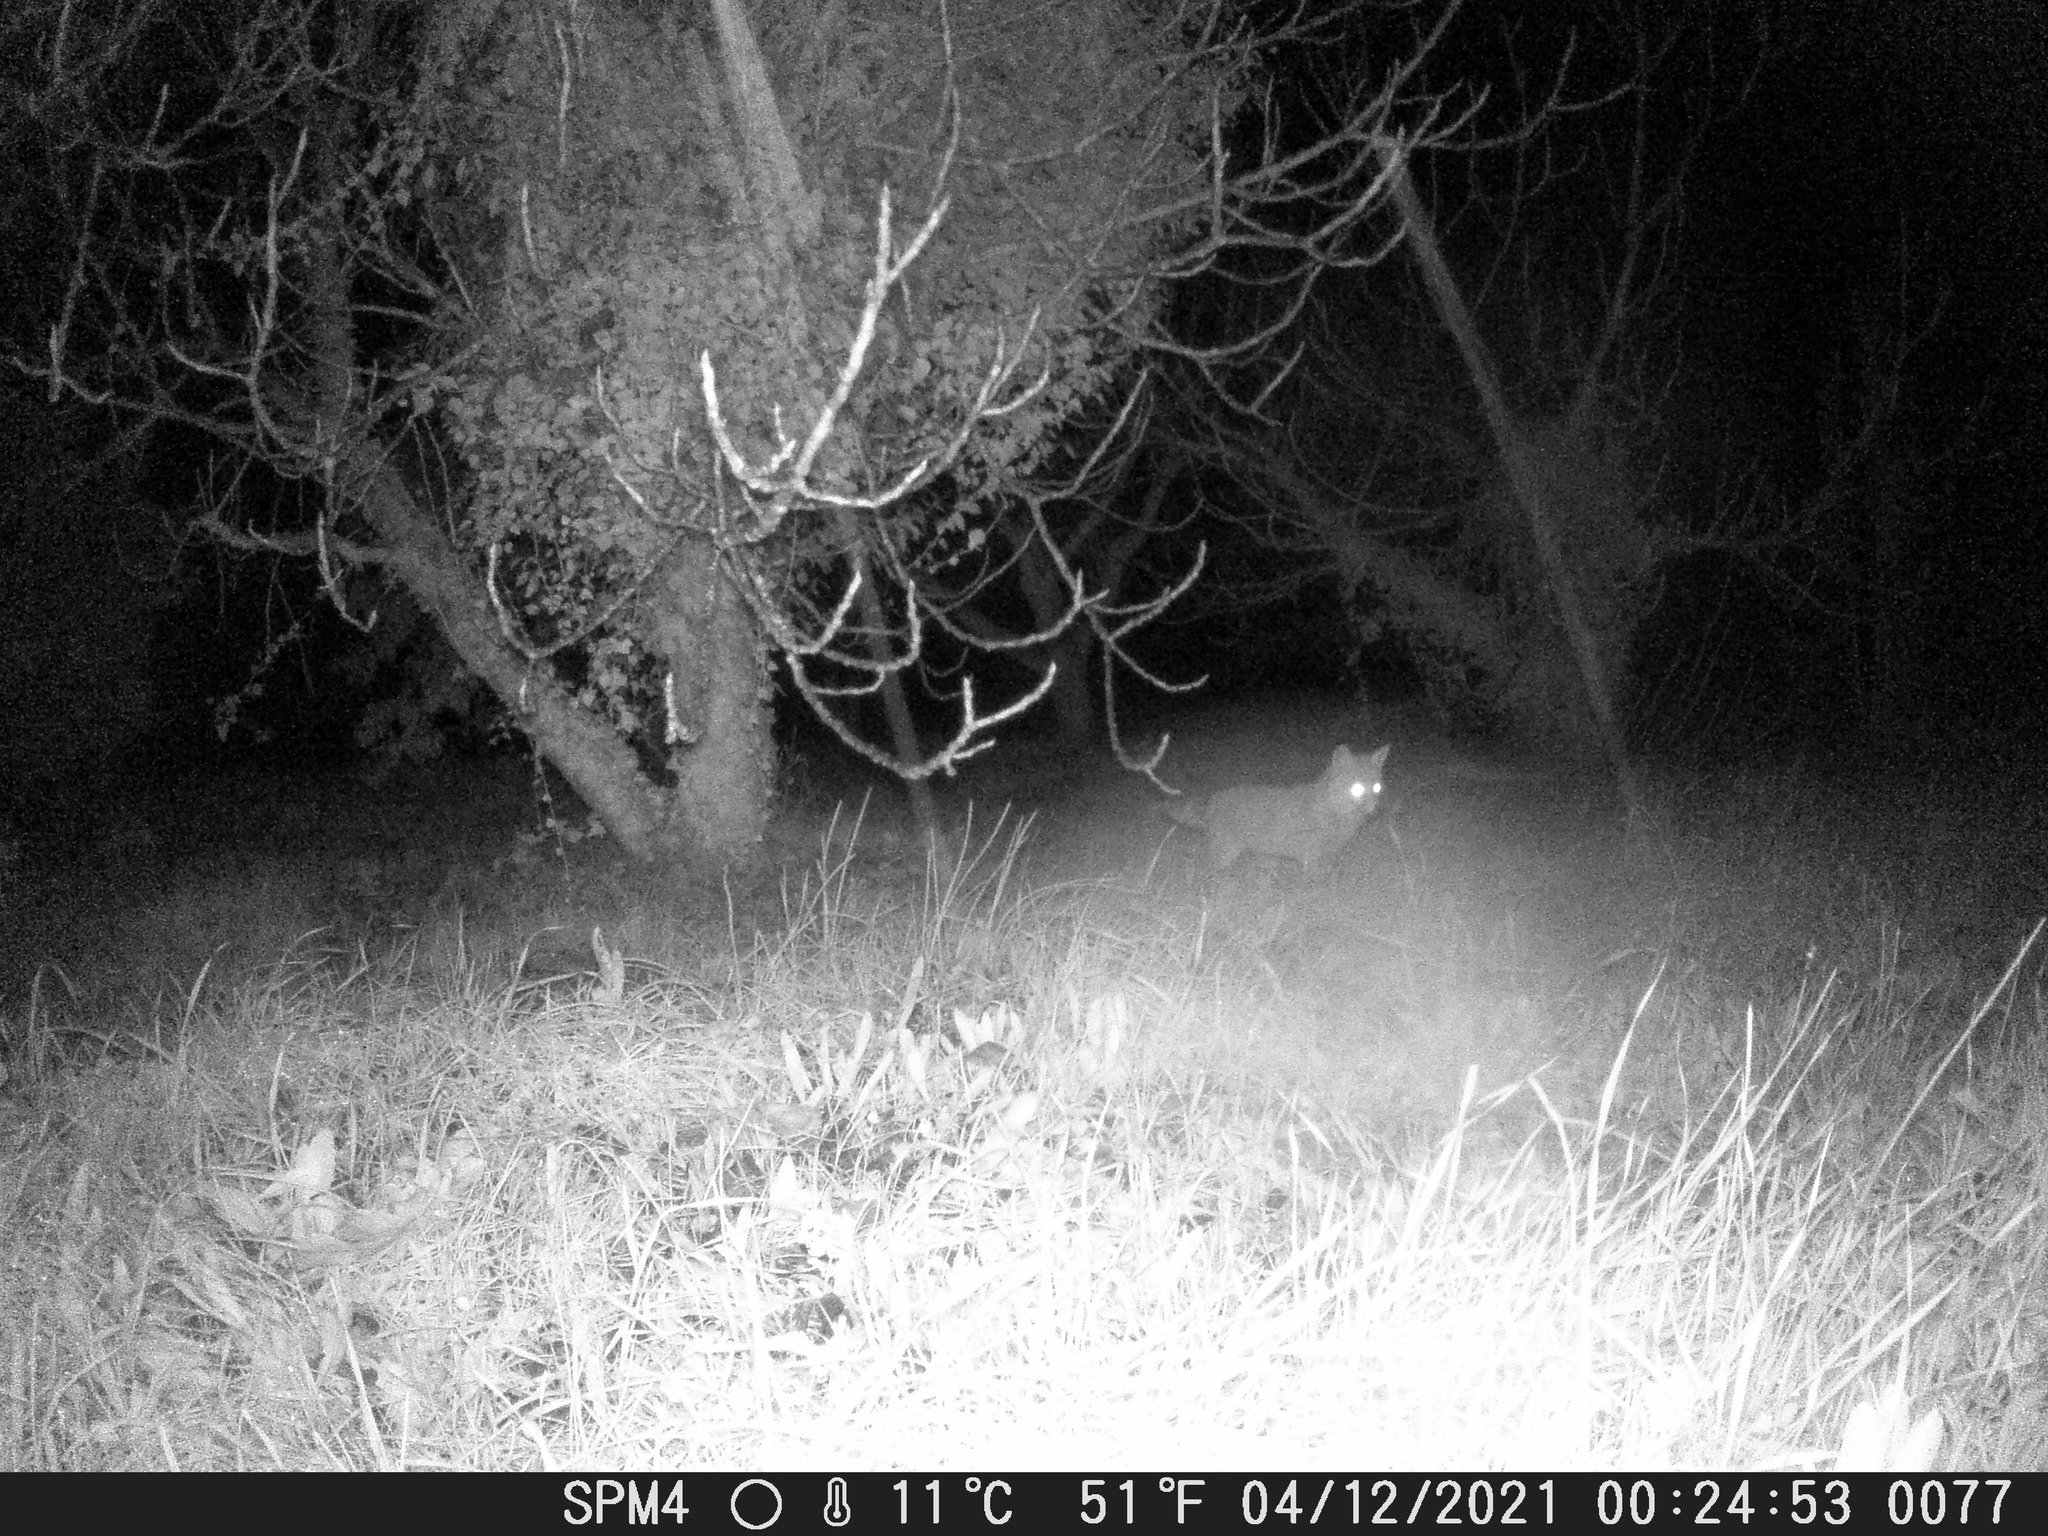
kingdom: Animalia
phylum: Chordata
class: Mammalia
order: Carnivora
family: Canidae
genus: Vulpes
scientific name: Vulpes vulpes
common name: Red fox
